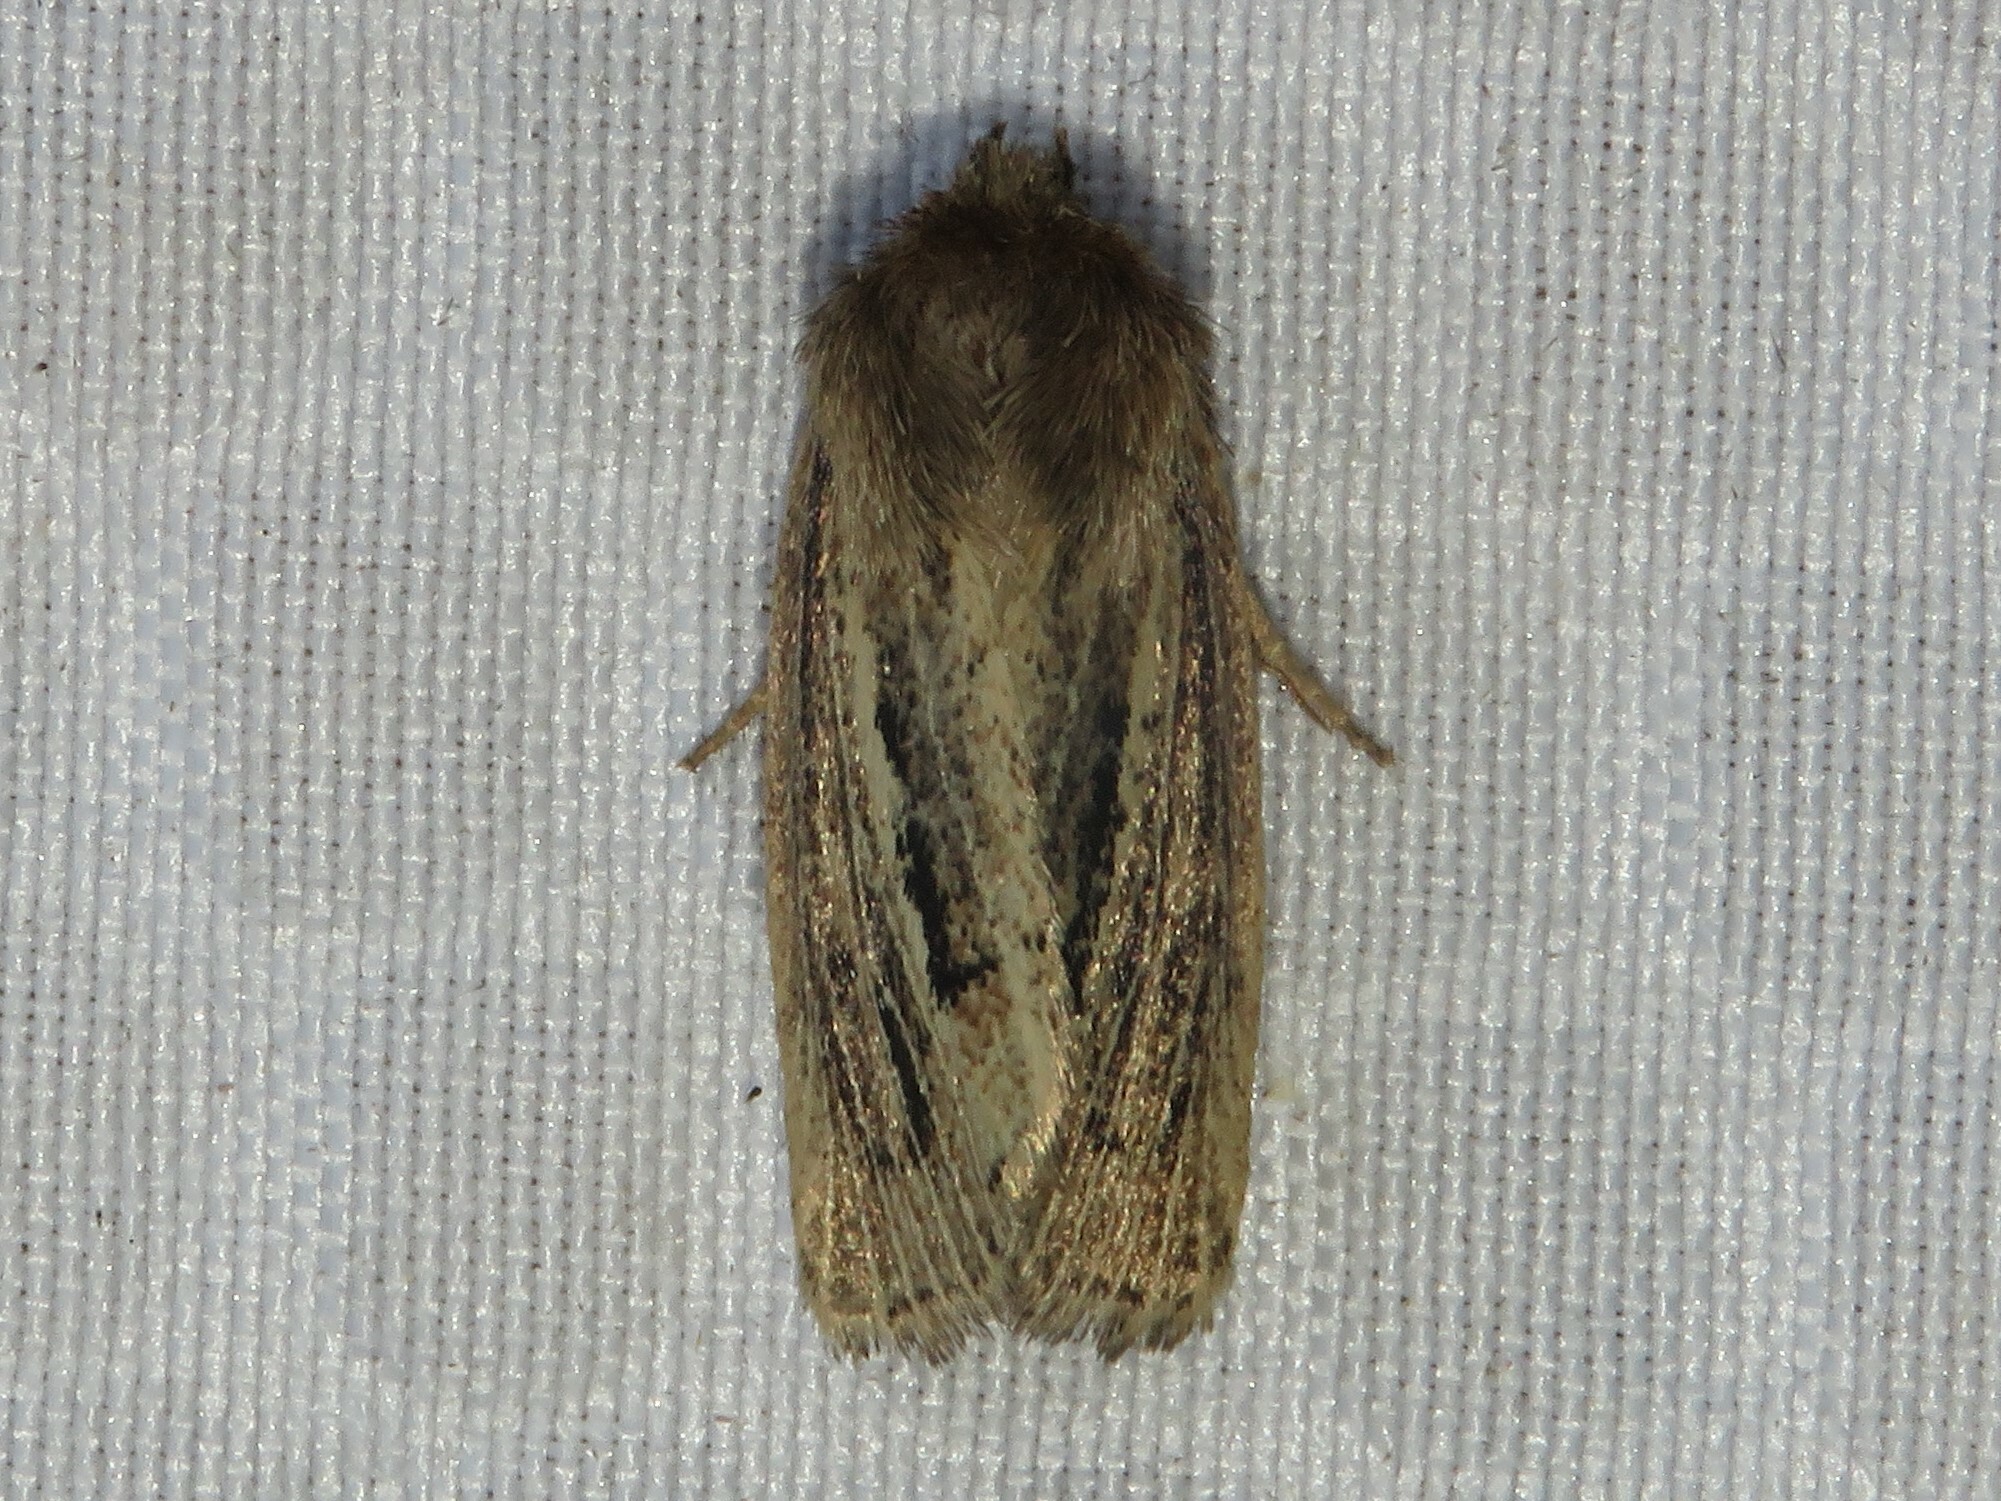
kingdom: Animalia
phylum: Arthropoda
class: Insecta
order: Lepidoptera
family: Noctuidae
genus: Hypocoena
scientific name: Hypocoena inquinata
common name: Tufted sedge moth
